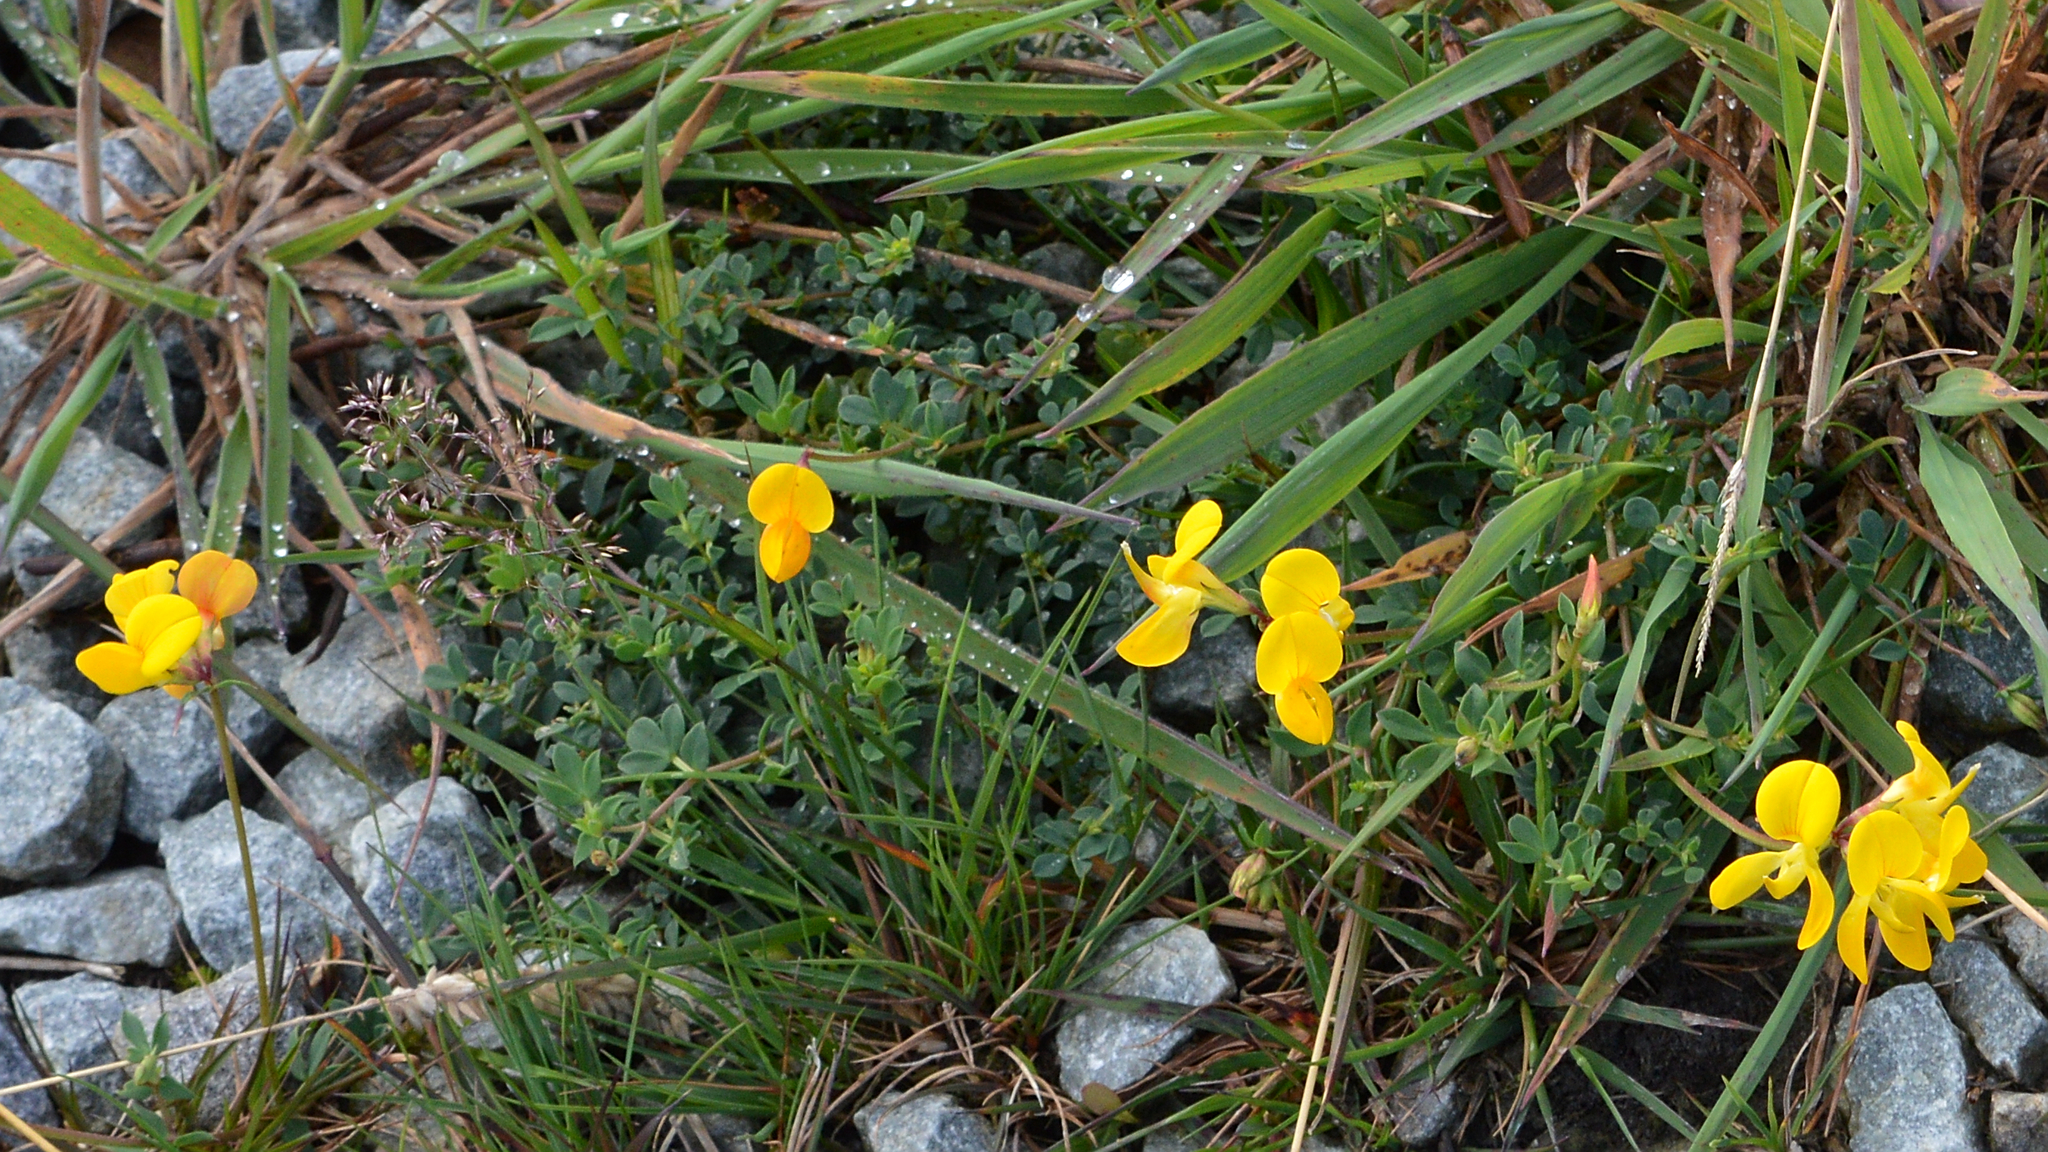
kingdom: Plantae
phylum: Tracheophyta
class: Magnoliopsida
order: Fabales
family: Fabaceae
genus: Lotus
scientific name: Lotus corniculatus
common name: Common bird's-foot-trefoil
